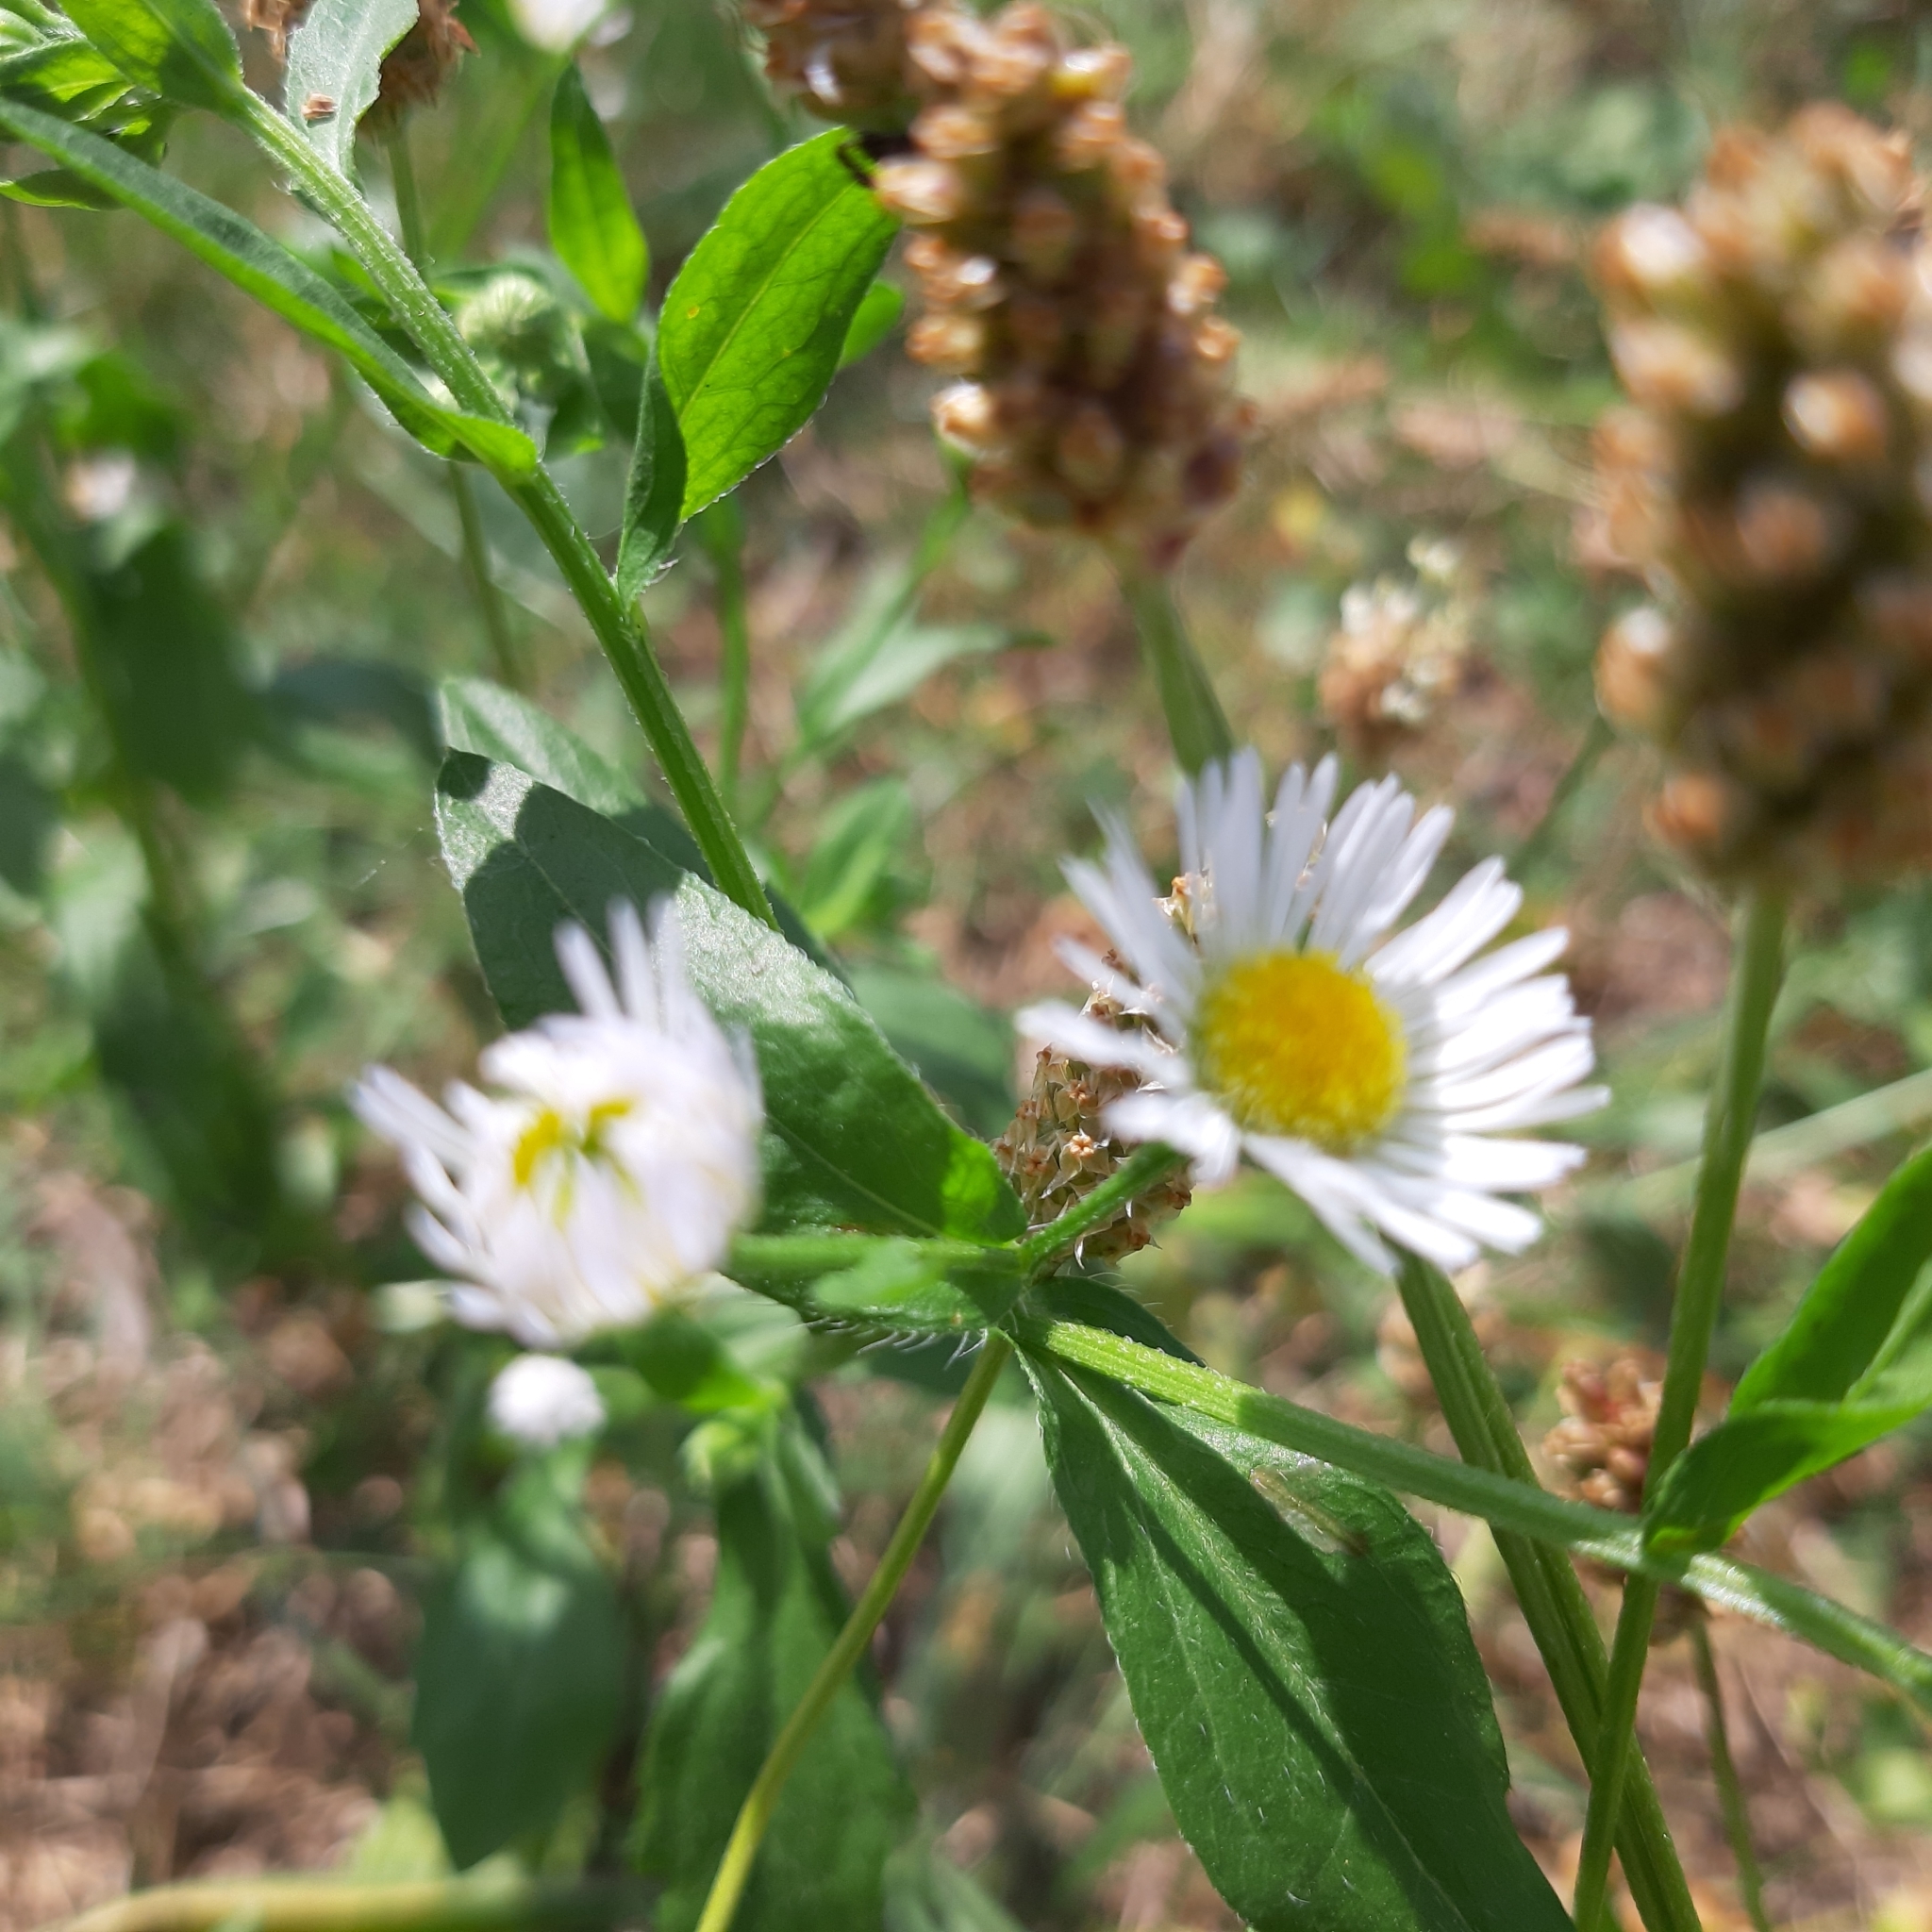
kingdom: Plantae
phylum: Tracheophyta
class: Magnoliopsida
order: Asterales
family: Asteraceae
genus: Erigeron
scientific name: Erigeron annuus
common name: Tall fleabane
